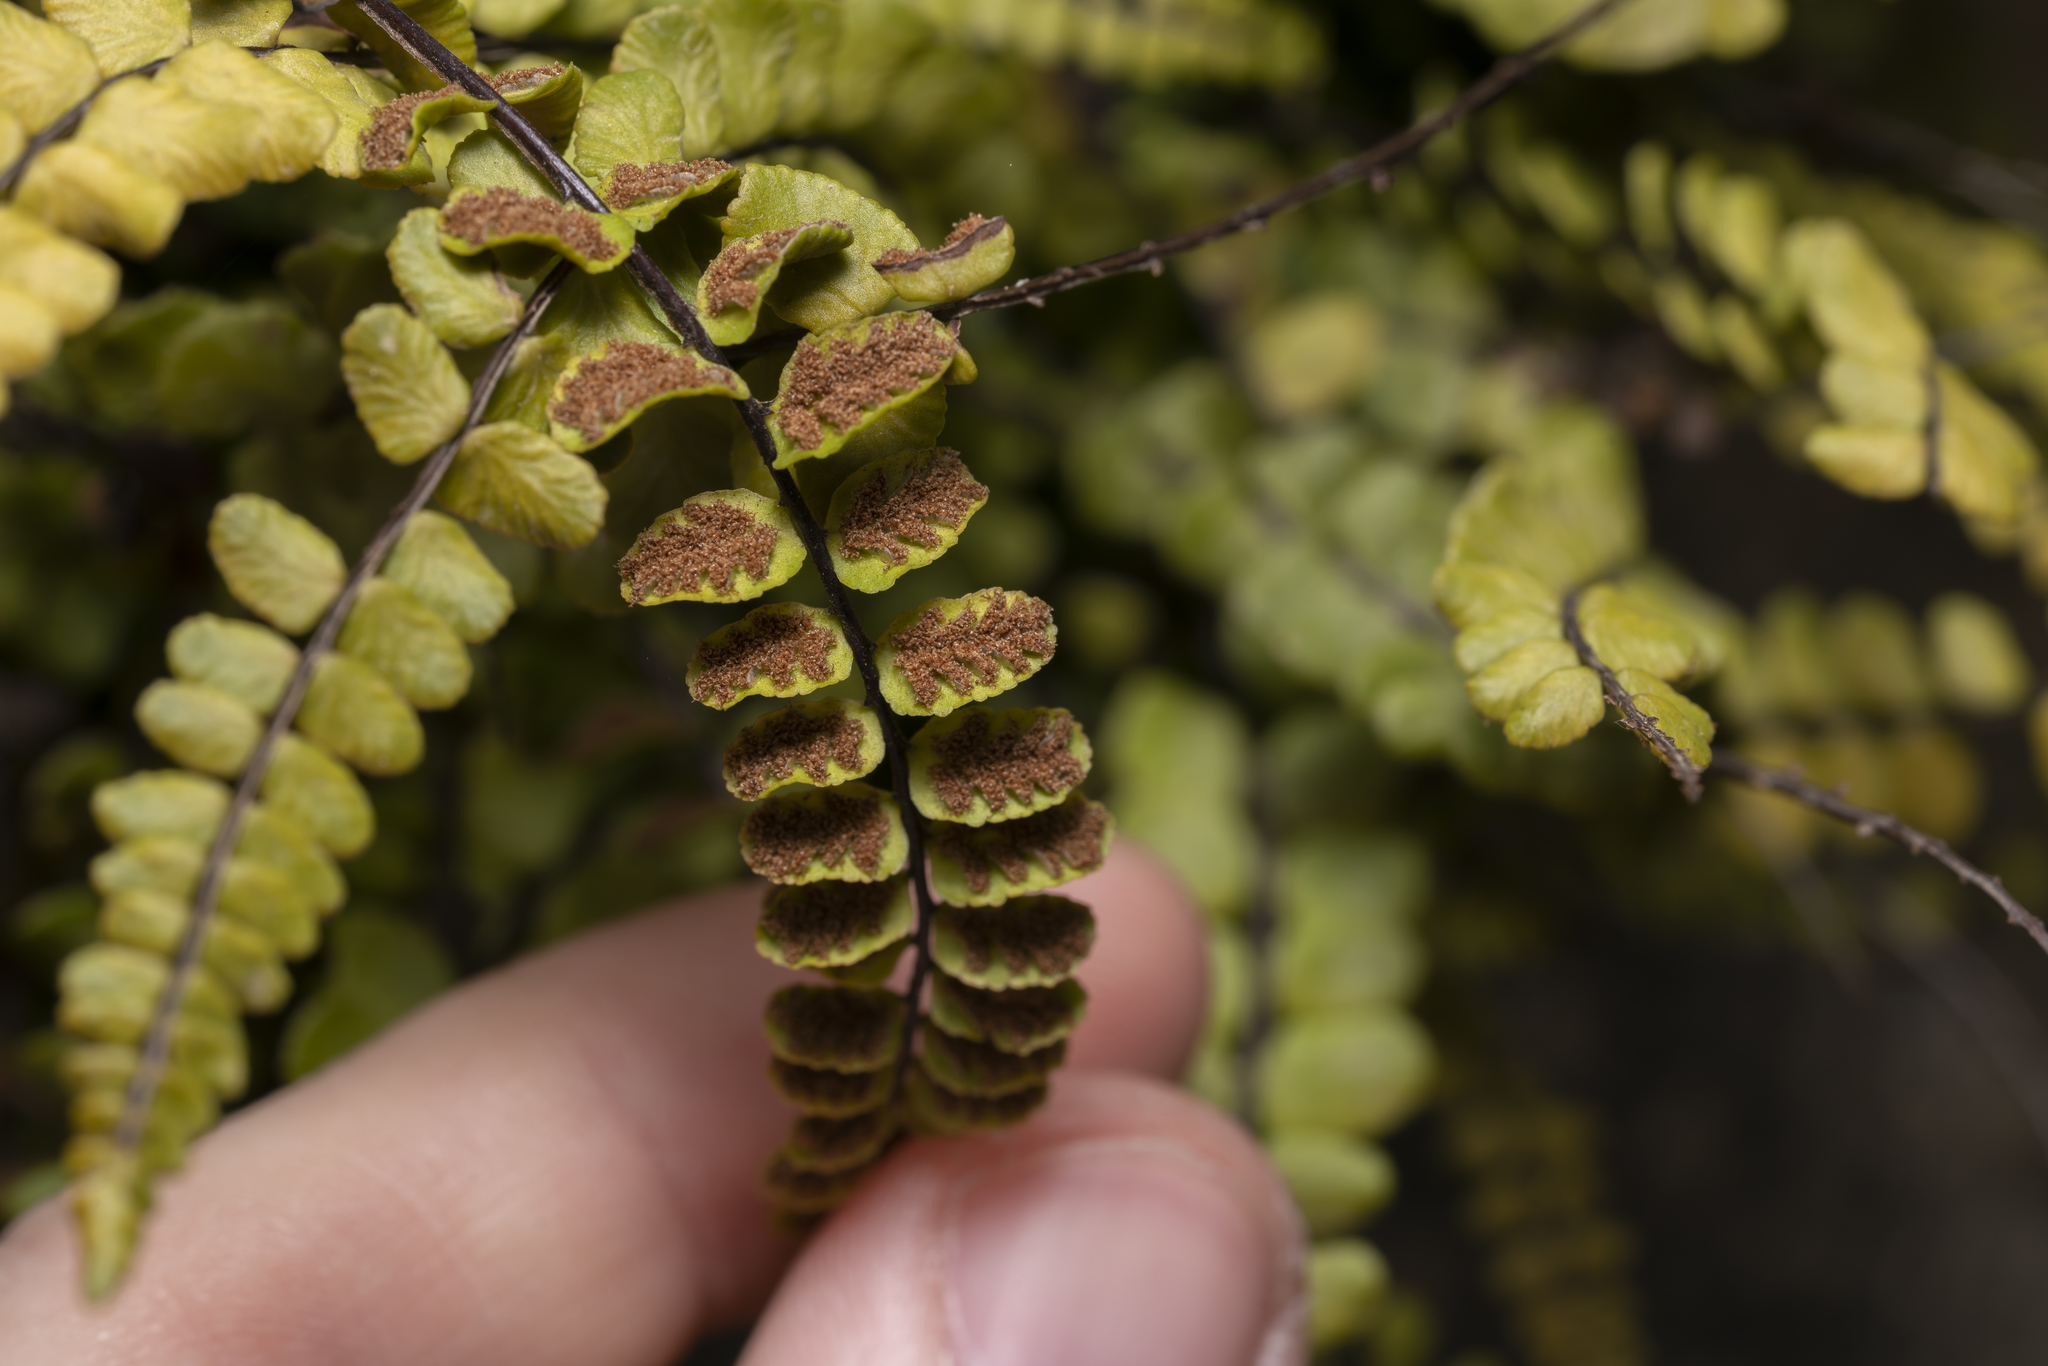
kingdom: Plantae
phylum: Tracheophyta
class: Polypodiopsida
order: Polypodiales
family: Aspleniaceae
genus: Asplenium
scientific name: Asplenium trichomanes
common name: Maidenhair spleenwort
